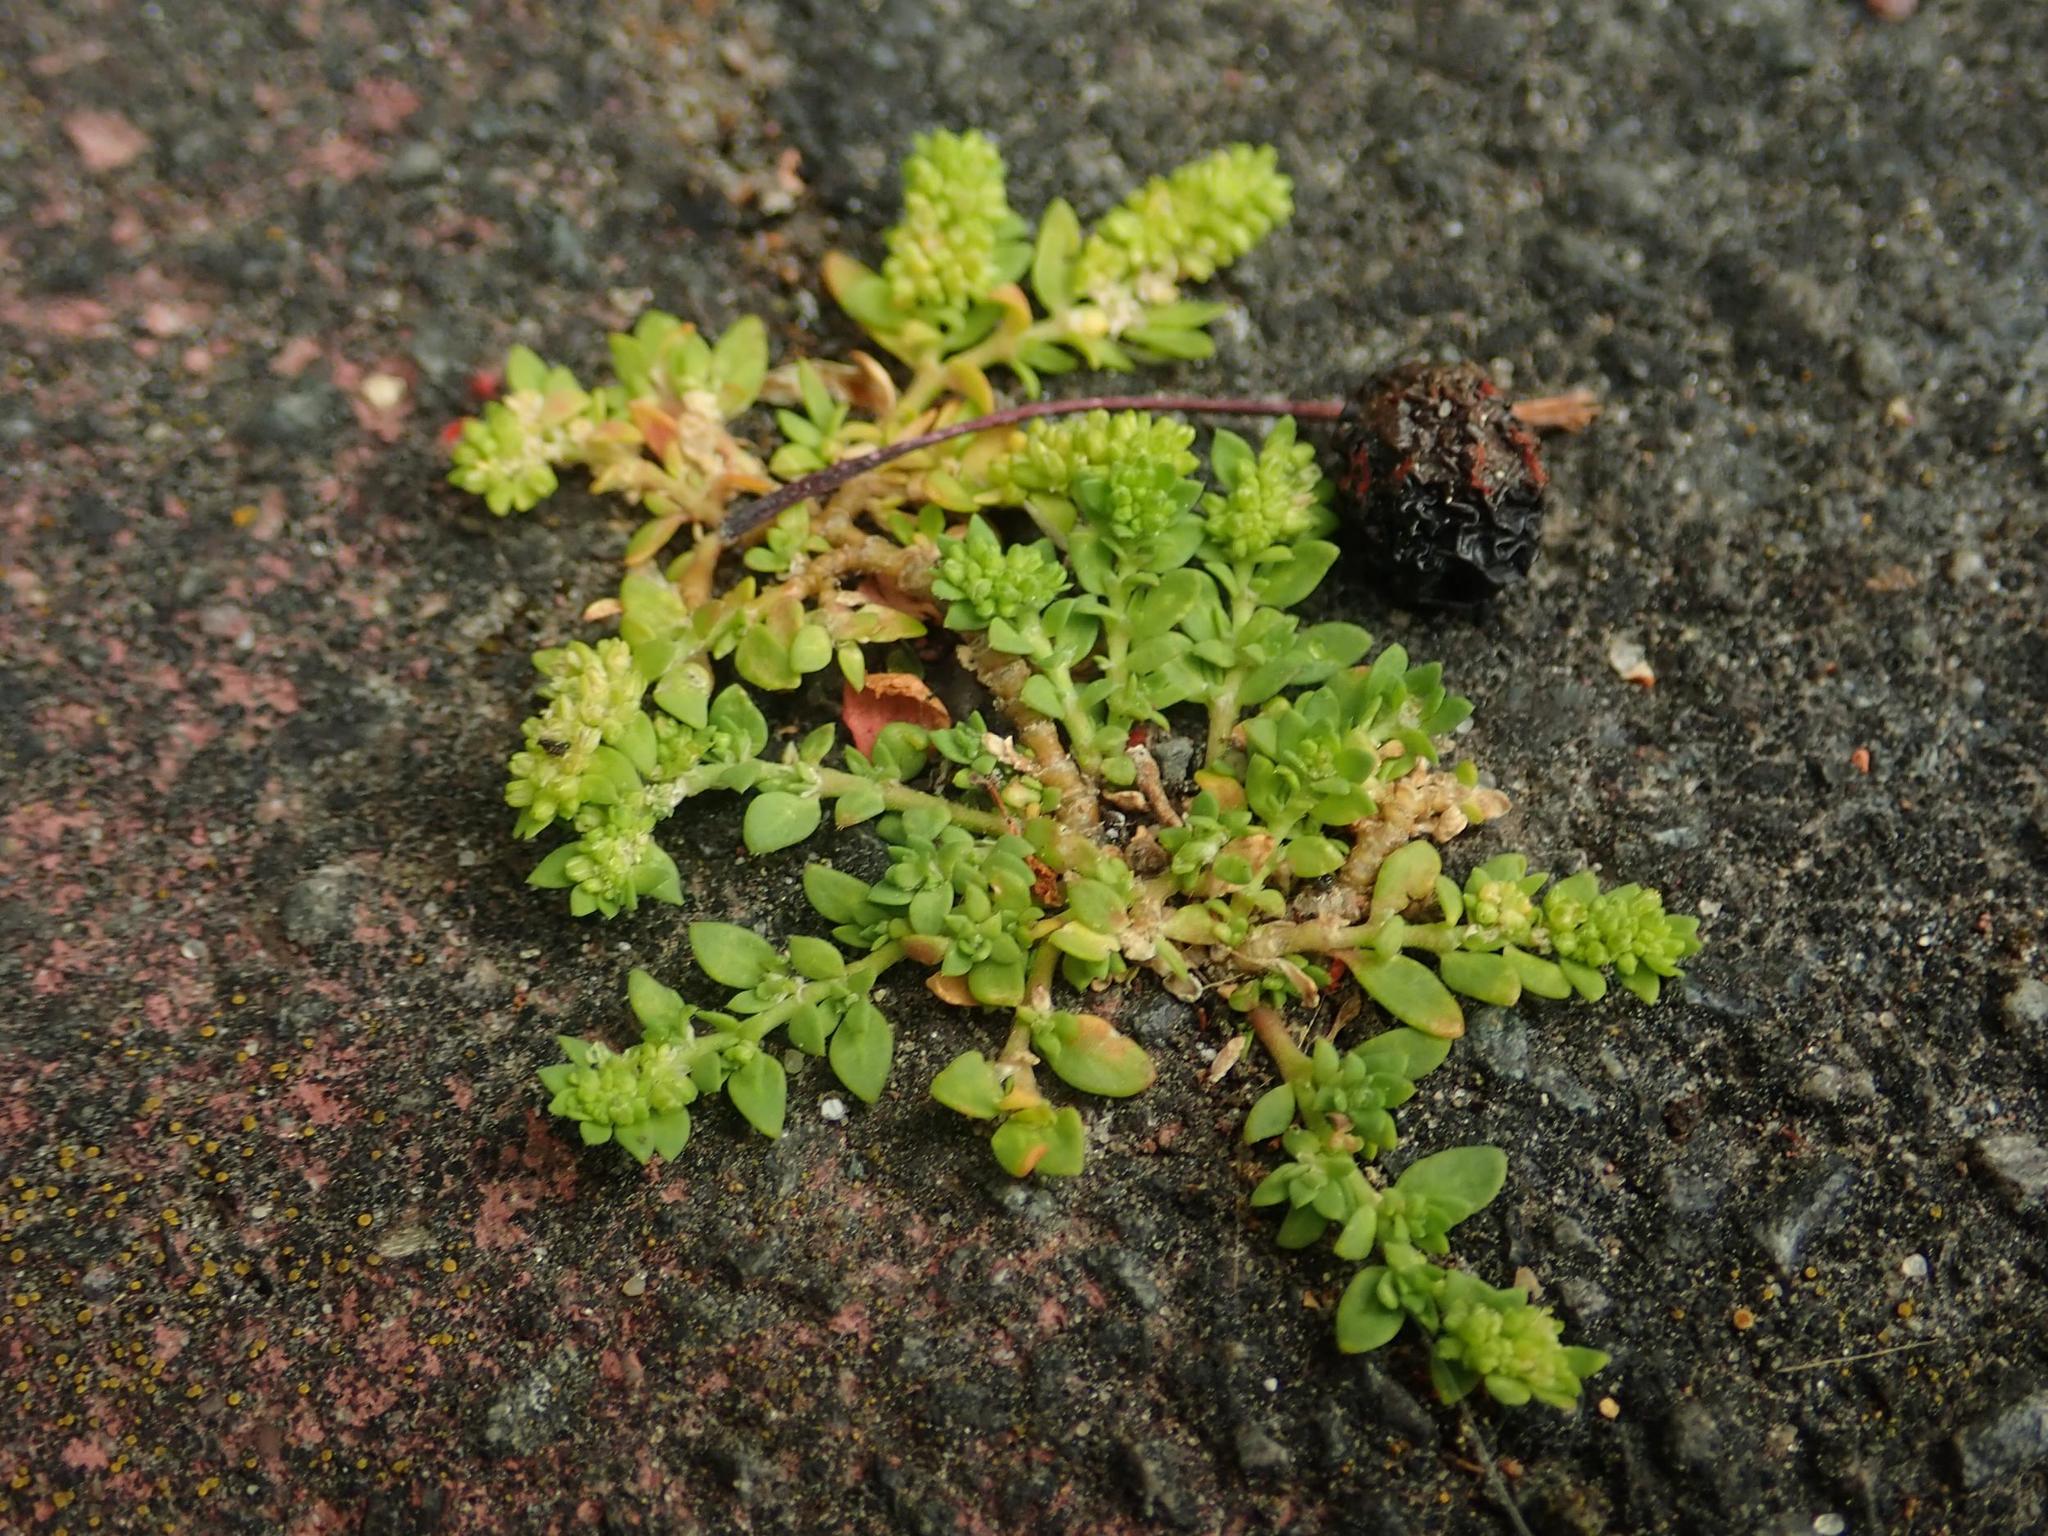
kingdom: Plantae
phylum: Tracheophyta
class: Magnoliopsida
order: Caryophyllales
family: Caryophyllaceae
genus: Herniaria
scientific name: Herniaria glabra
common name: Smooth rupturewort
